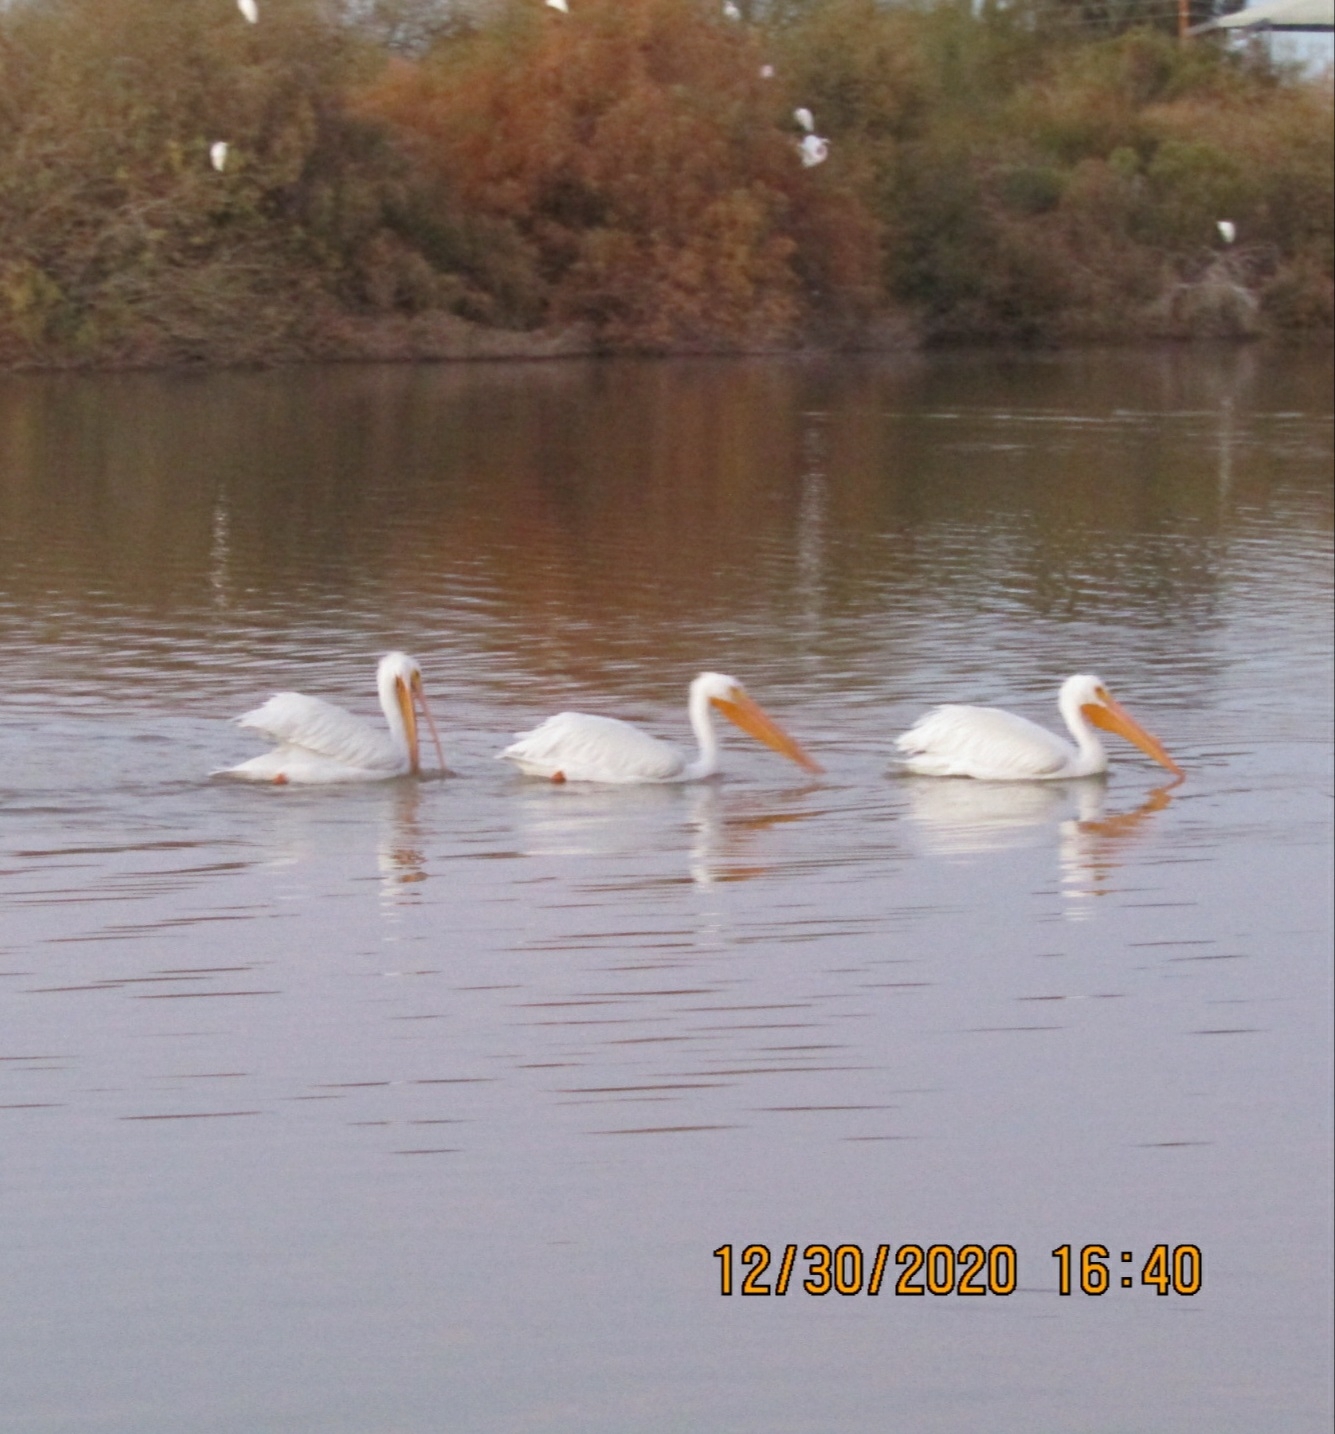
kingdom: Animalia
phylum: Chordata
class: Aves
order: Pelecaniformes
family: Pelecanidae
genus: Pelecanus
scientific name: Pelecanus erythrorhynchos
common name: American white pelican
